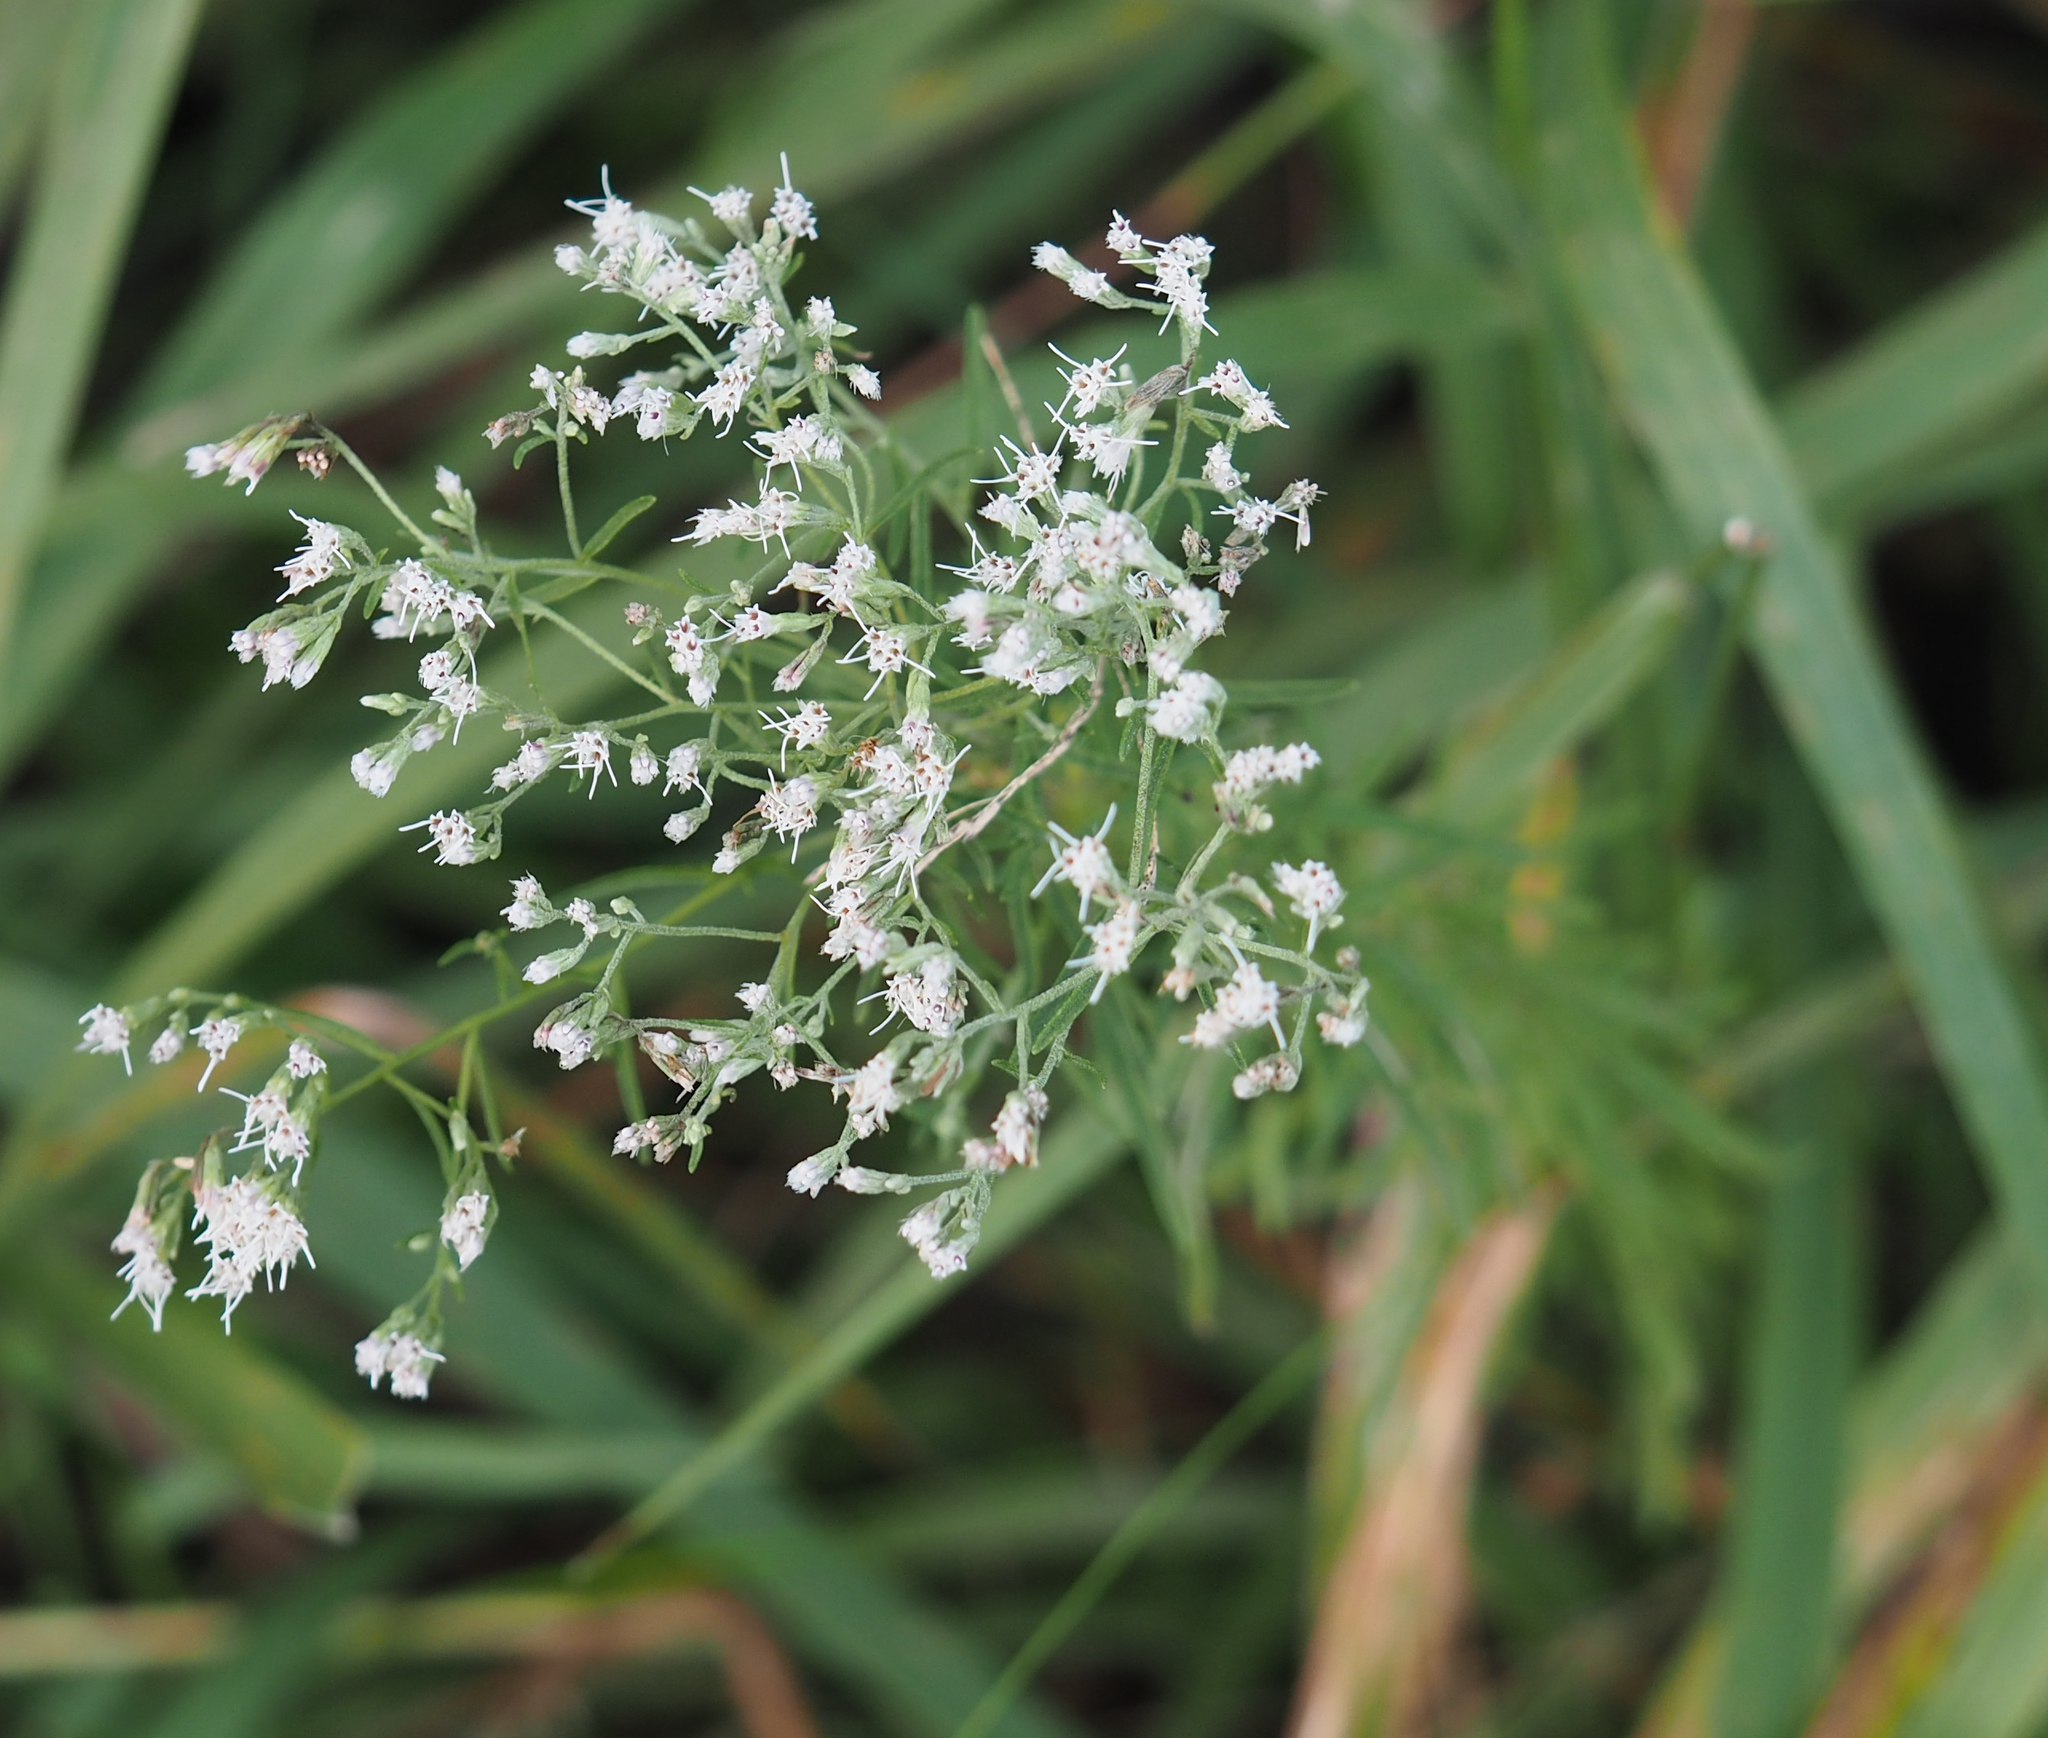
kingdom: Plantae
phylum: Tracheophyta
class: Magnoliopsida
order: Asterales
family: Asteraceae
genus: Eupatorium
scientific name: Eupatorium hyssopifolium
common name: Hyssop-leaf thoroughwort
